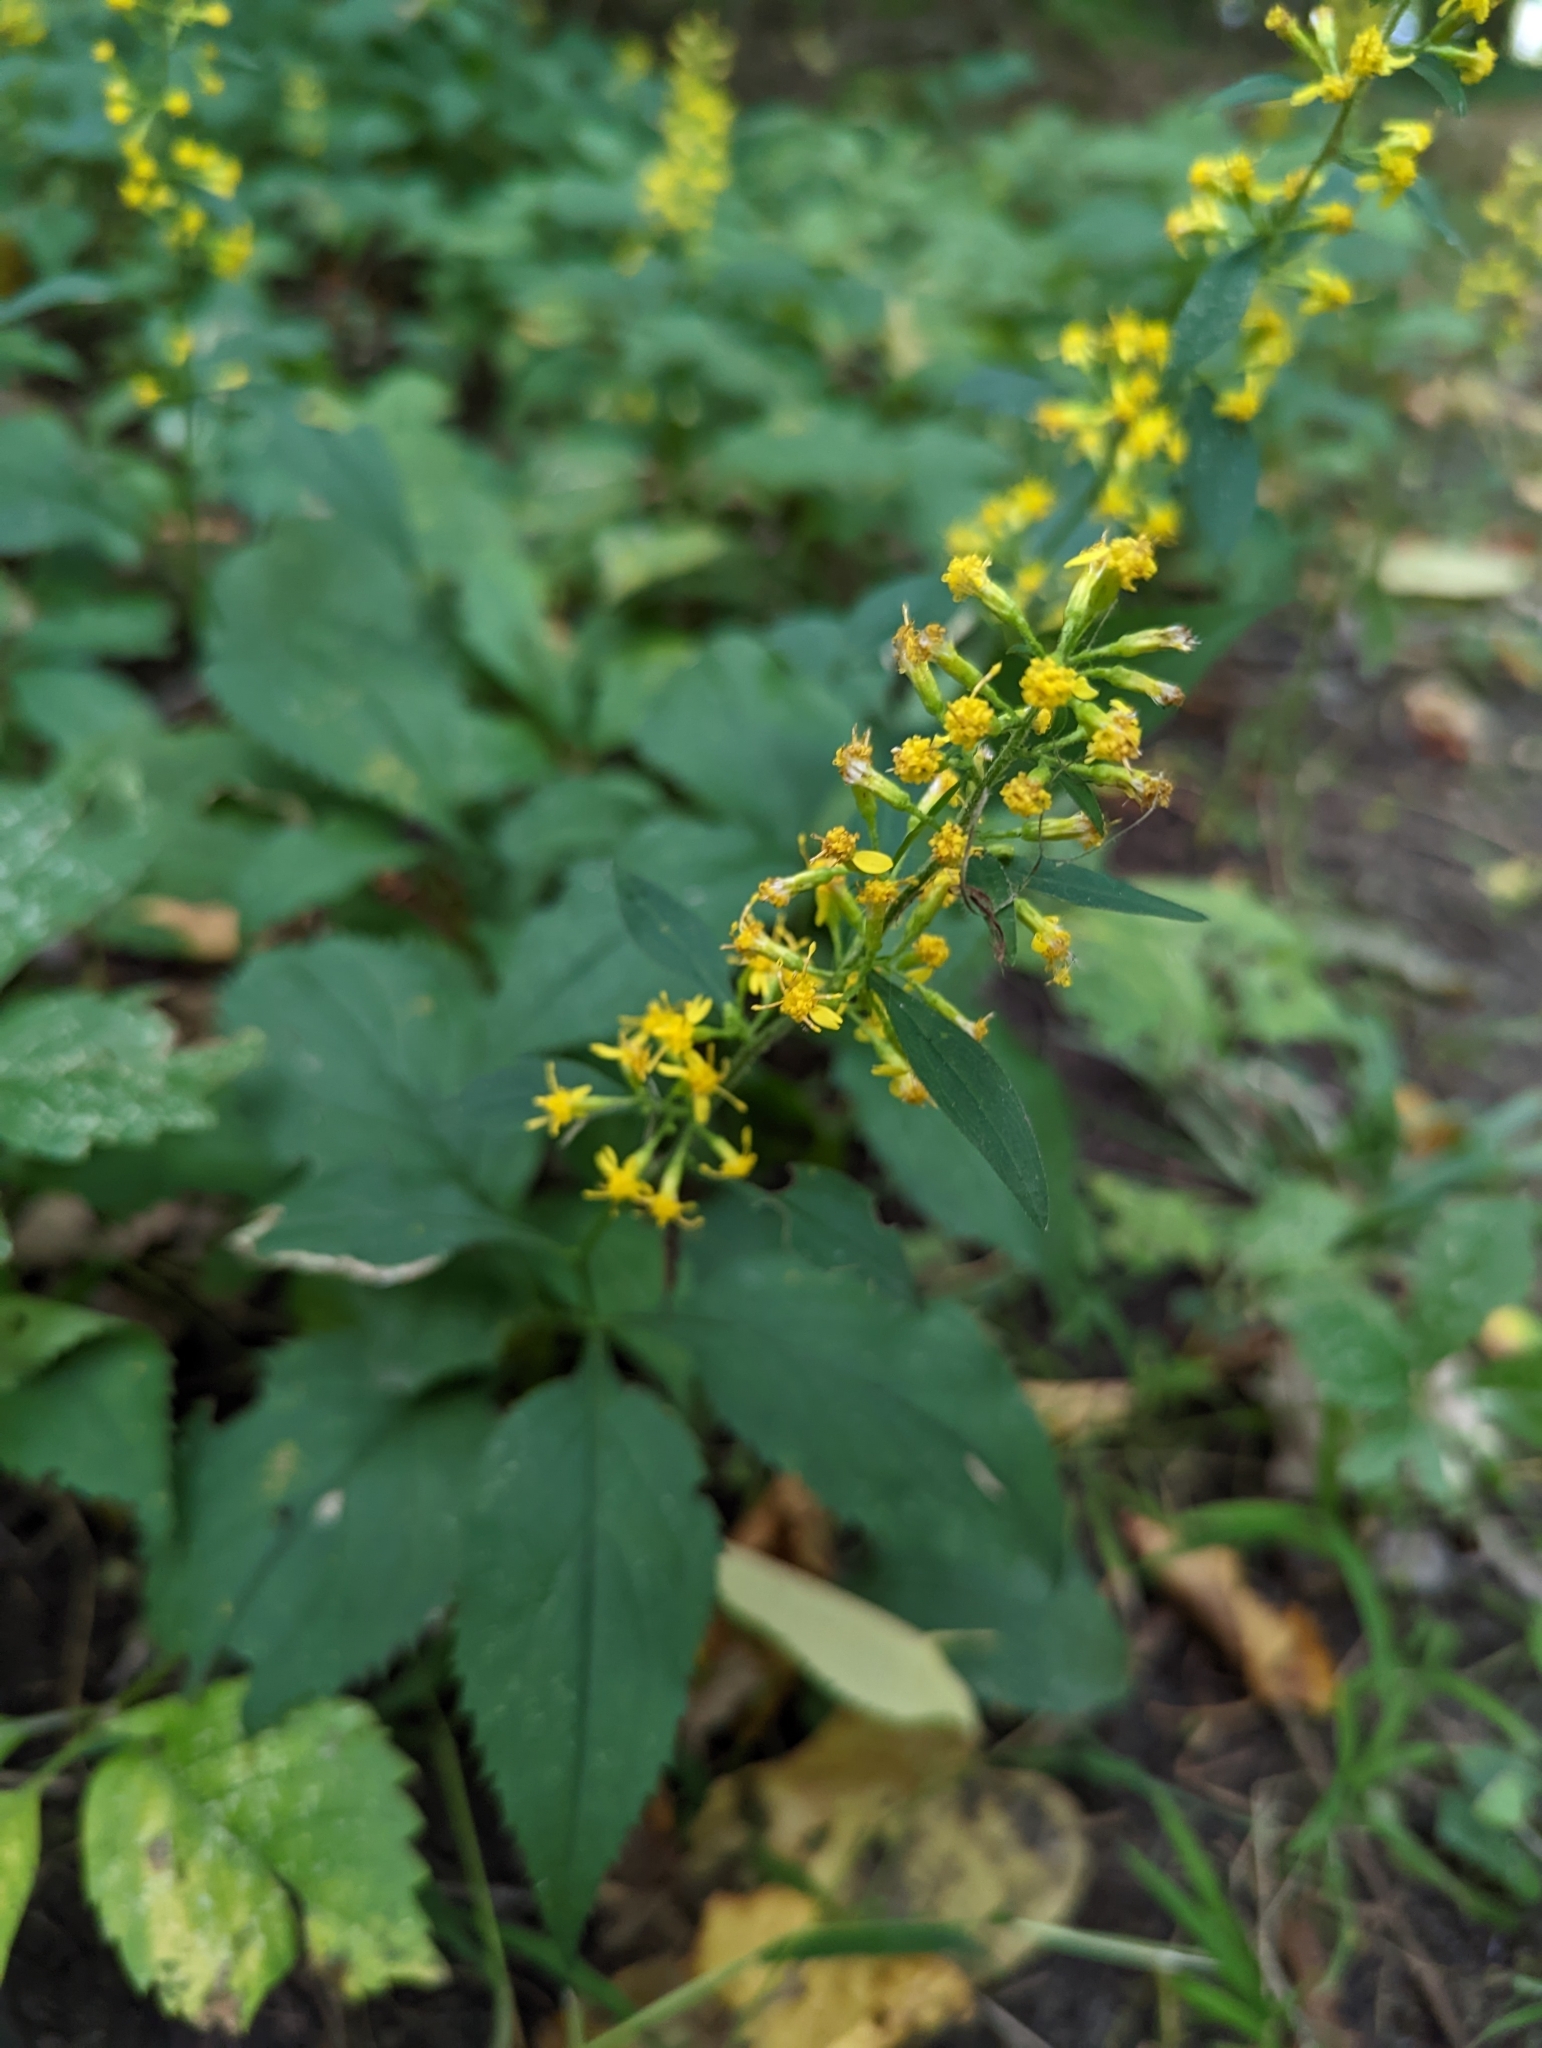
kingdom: Plantae
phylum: Tracheophyta
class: Magnoliopsida
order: Asterales
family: Asteraceae
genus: Solidago
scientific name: Solidago flexicaulis
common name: Zig-zag goldenrod
